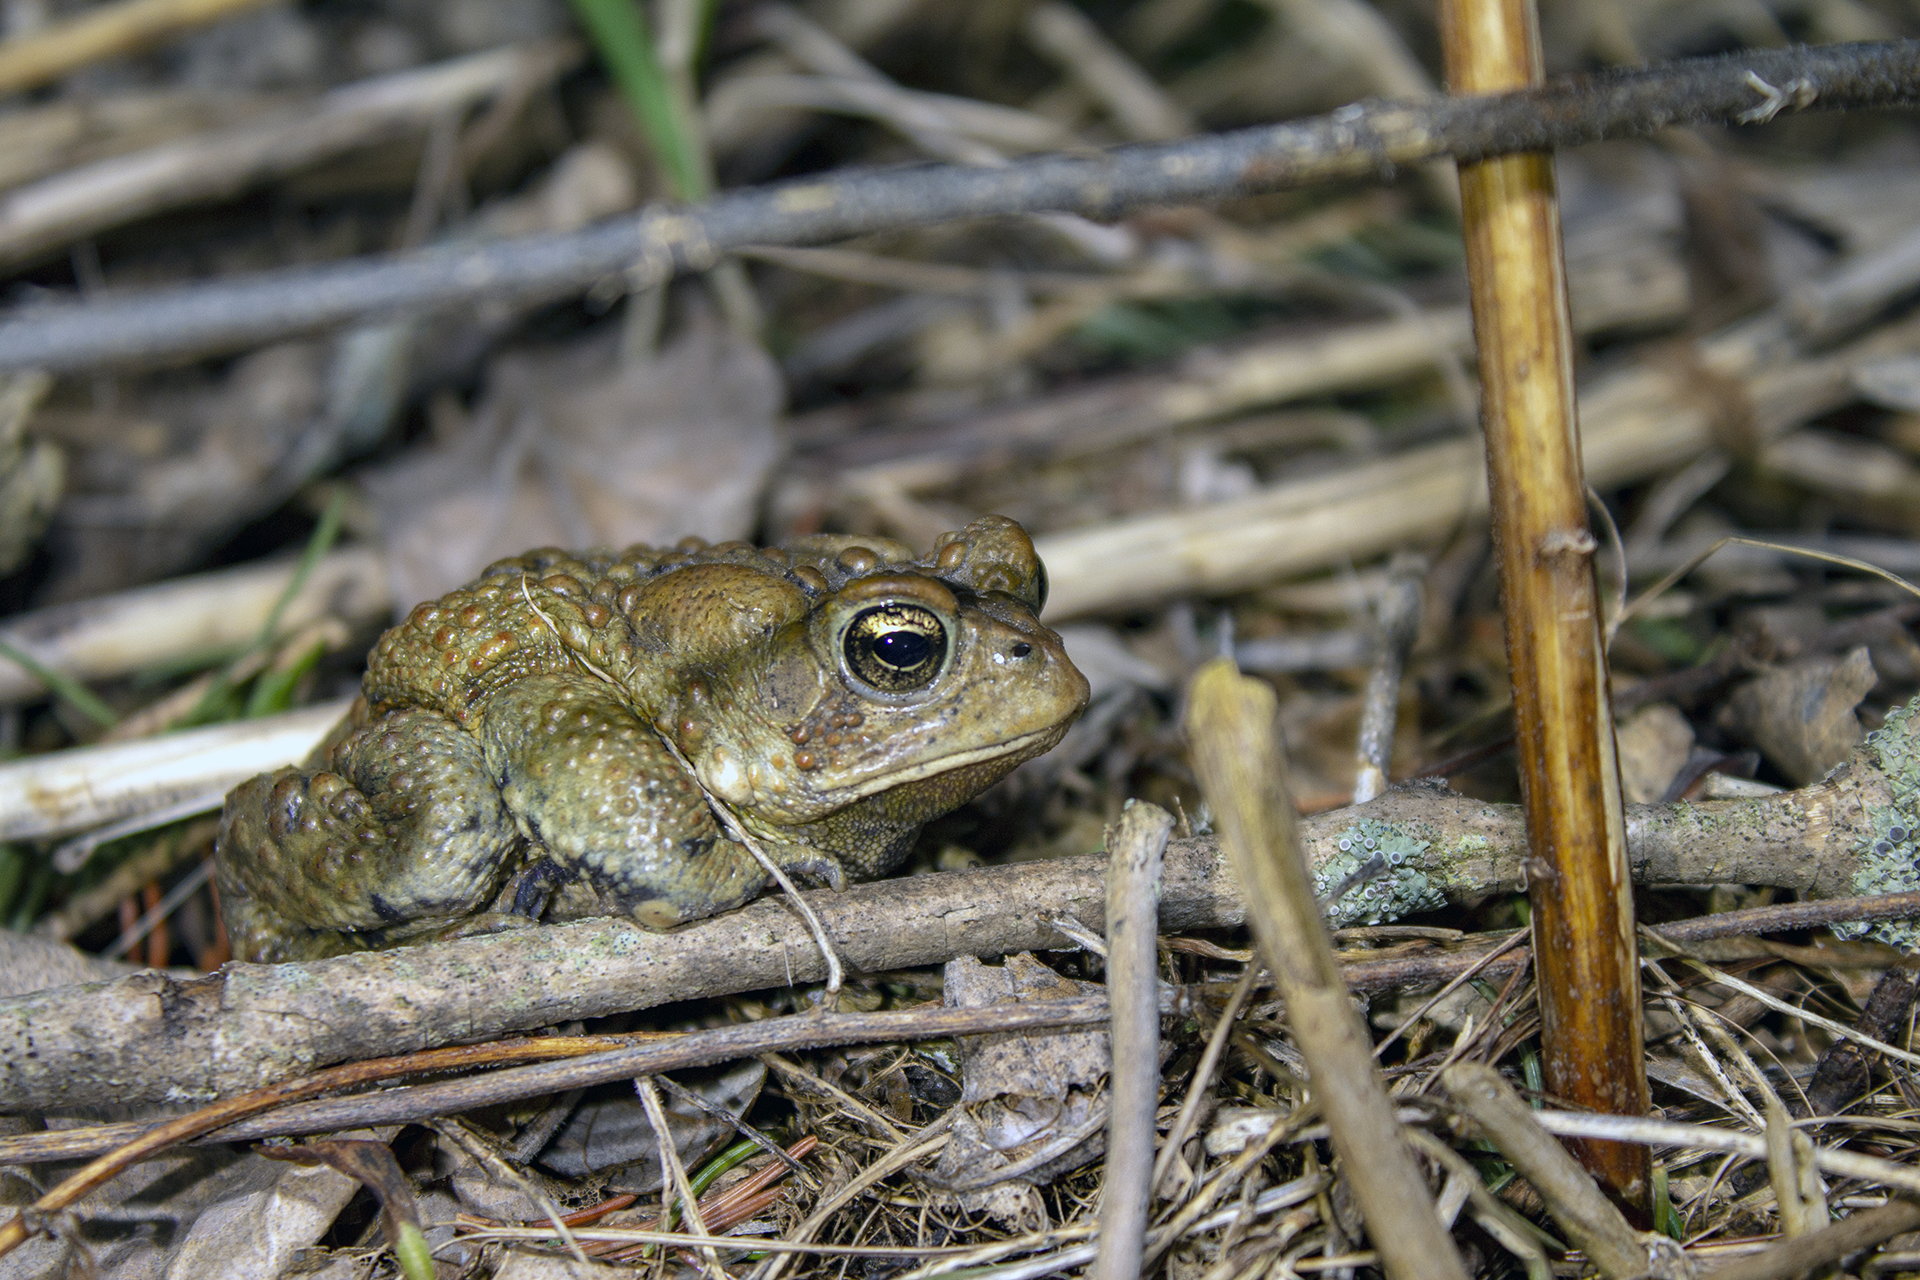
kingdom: Animalia
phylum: Chordata
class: Amphibia
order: Anura
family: Bufonidae
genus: Anaxyrus
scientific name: Anaxyrus americanus
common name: American toad
